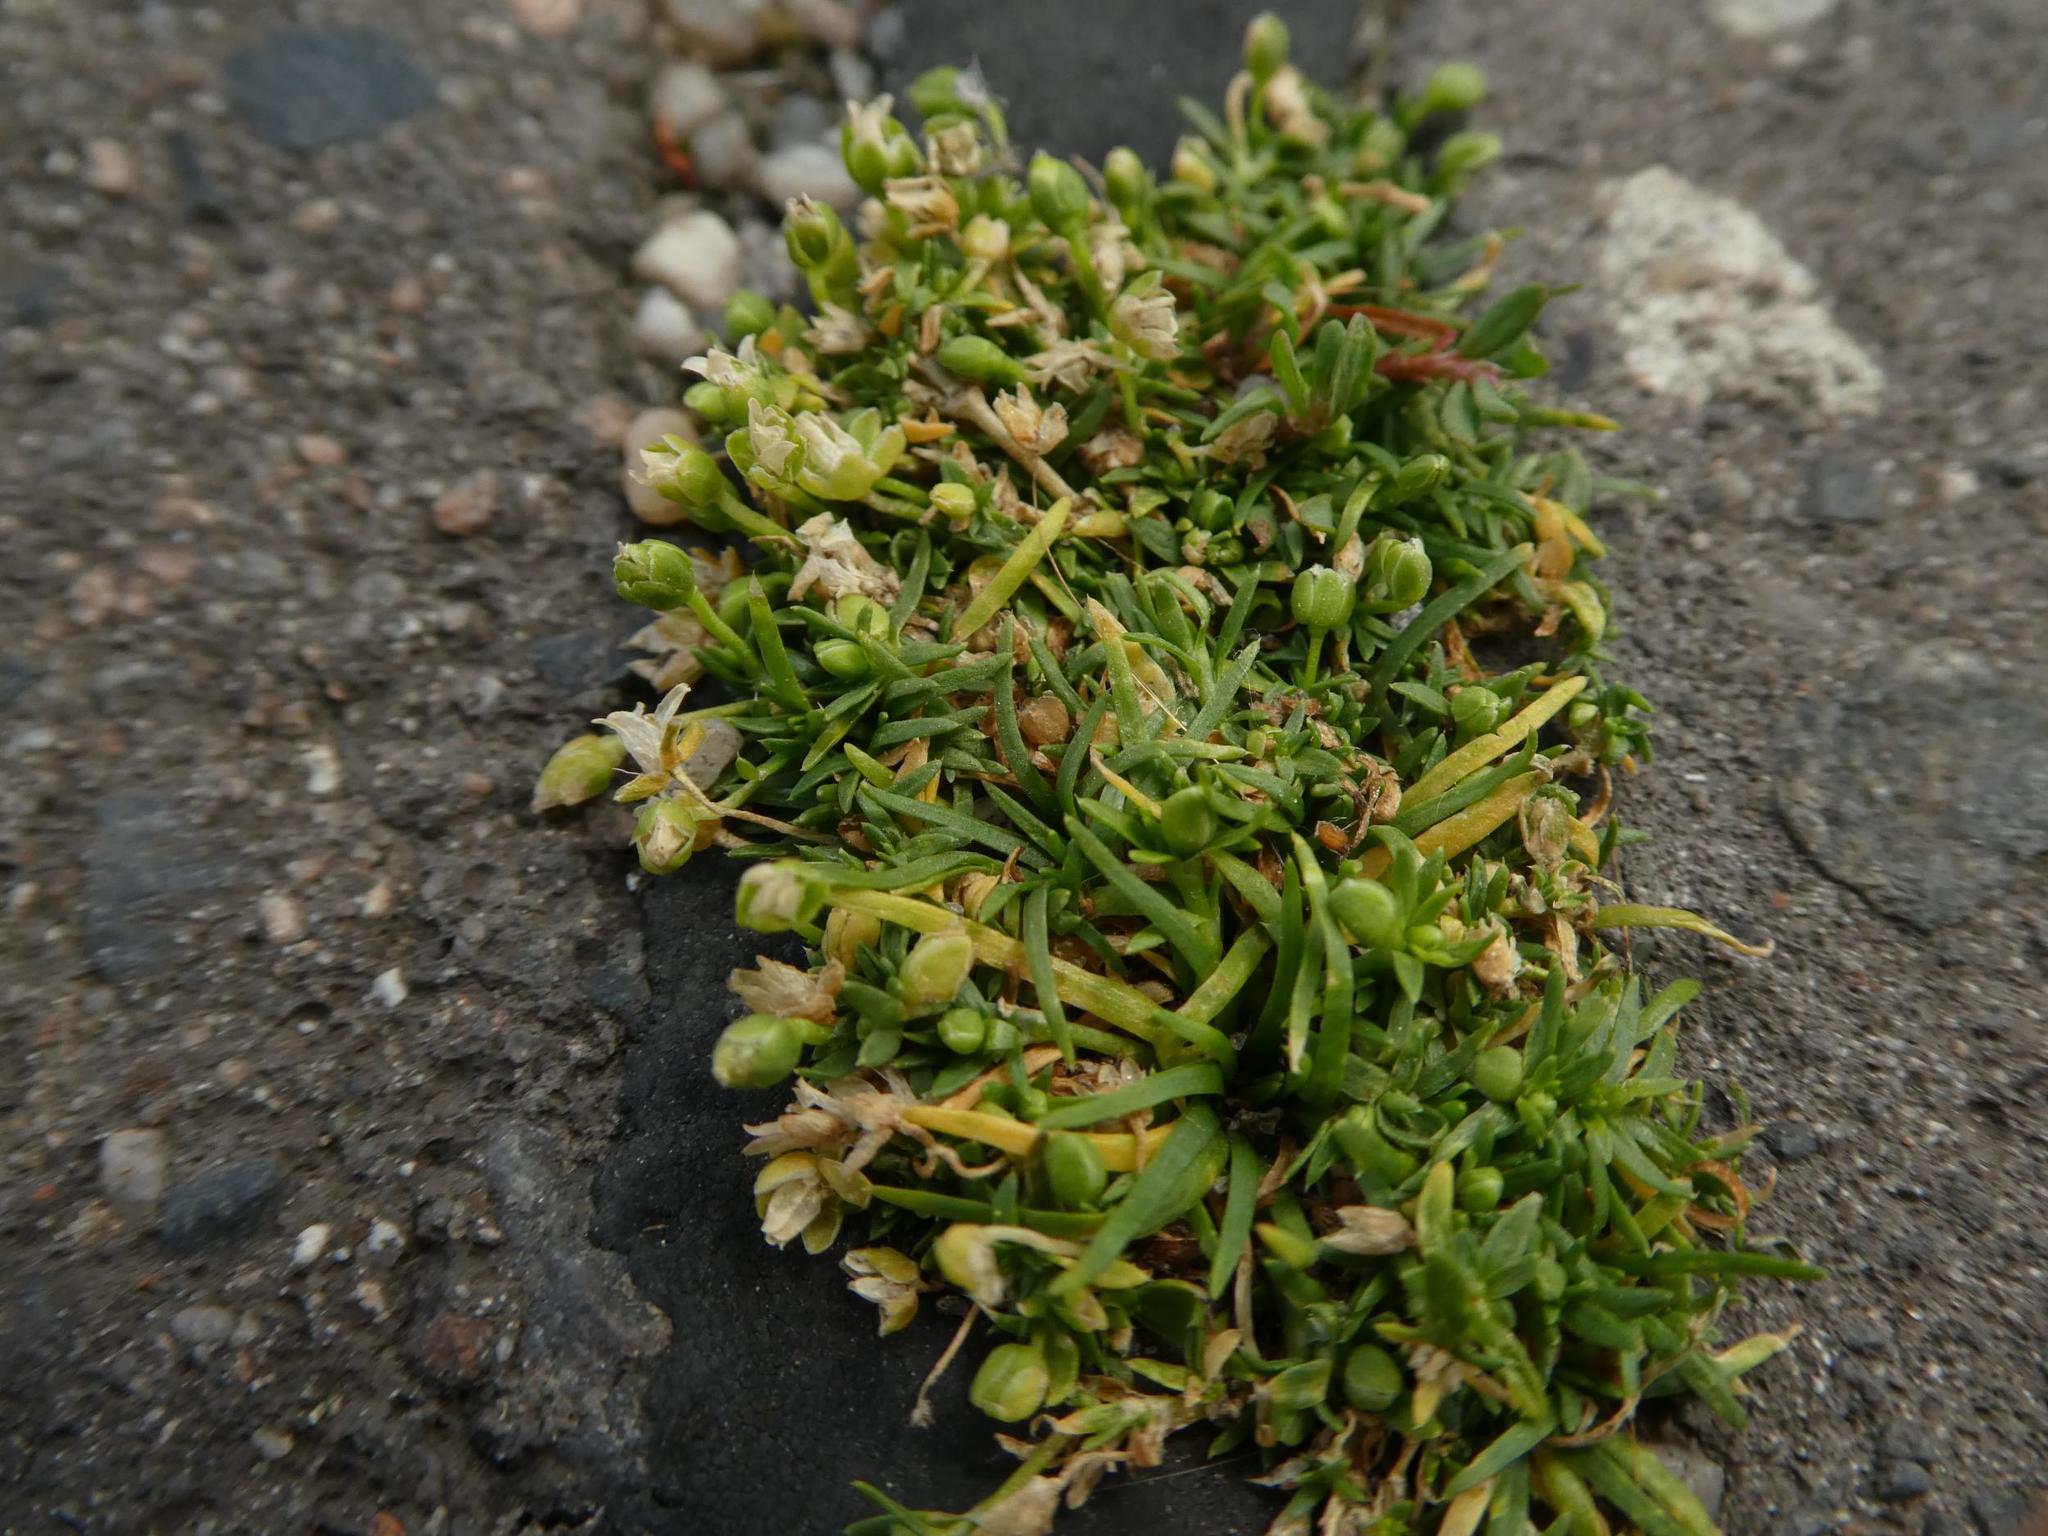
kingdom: Plantae
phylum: Tracheophyta
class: Magnoliopsida
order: Caryophyllales
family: Caryophyllaceae
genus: Sagina
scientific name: Sagina procumbens
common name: Procumbent pearlwort
